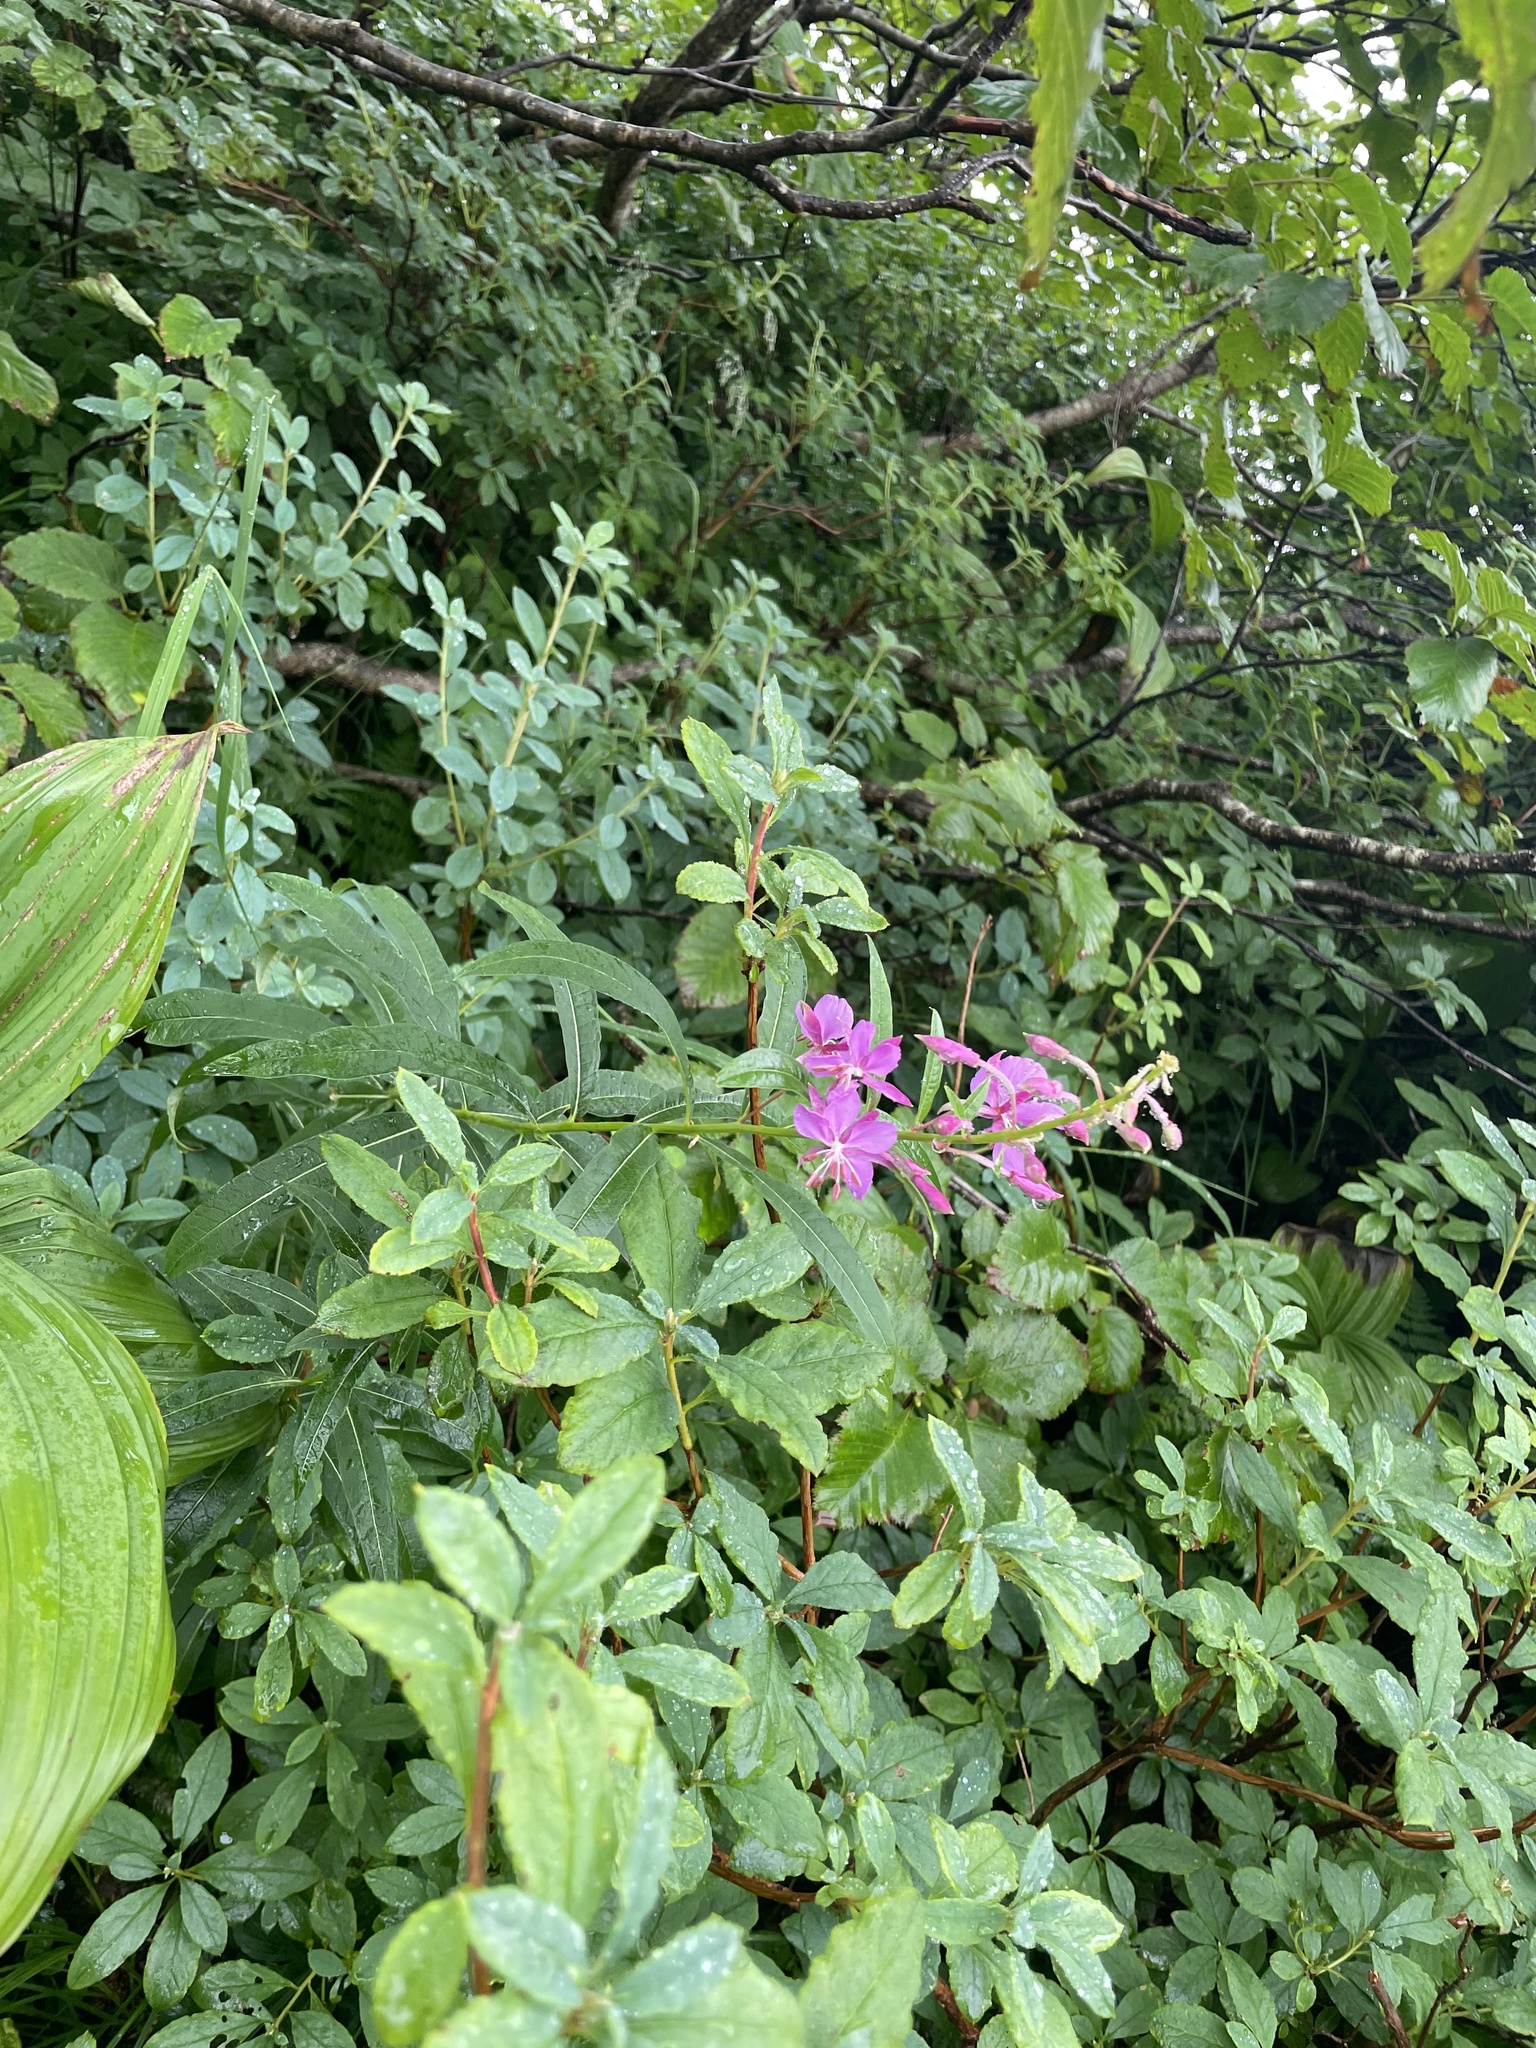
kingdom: Plantae
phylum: Tracheophyta
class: Magnoliopsida
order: Myrtales
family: Onagraceae
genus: Chamaenerion
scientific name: Chamaenerion angustifolium
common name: Fireweed
